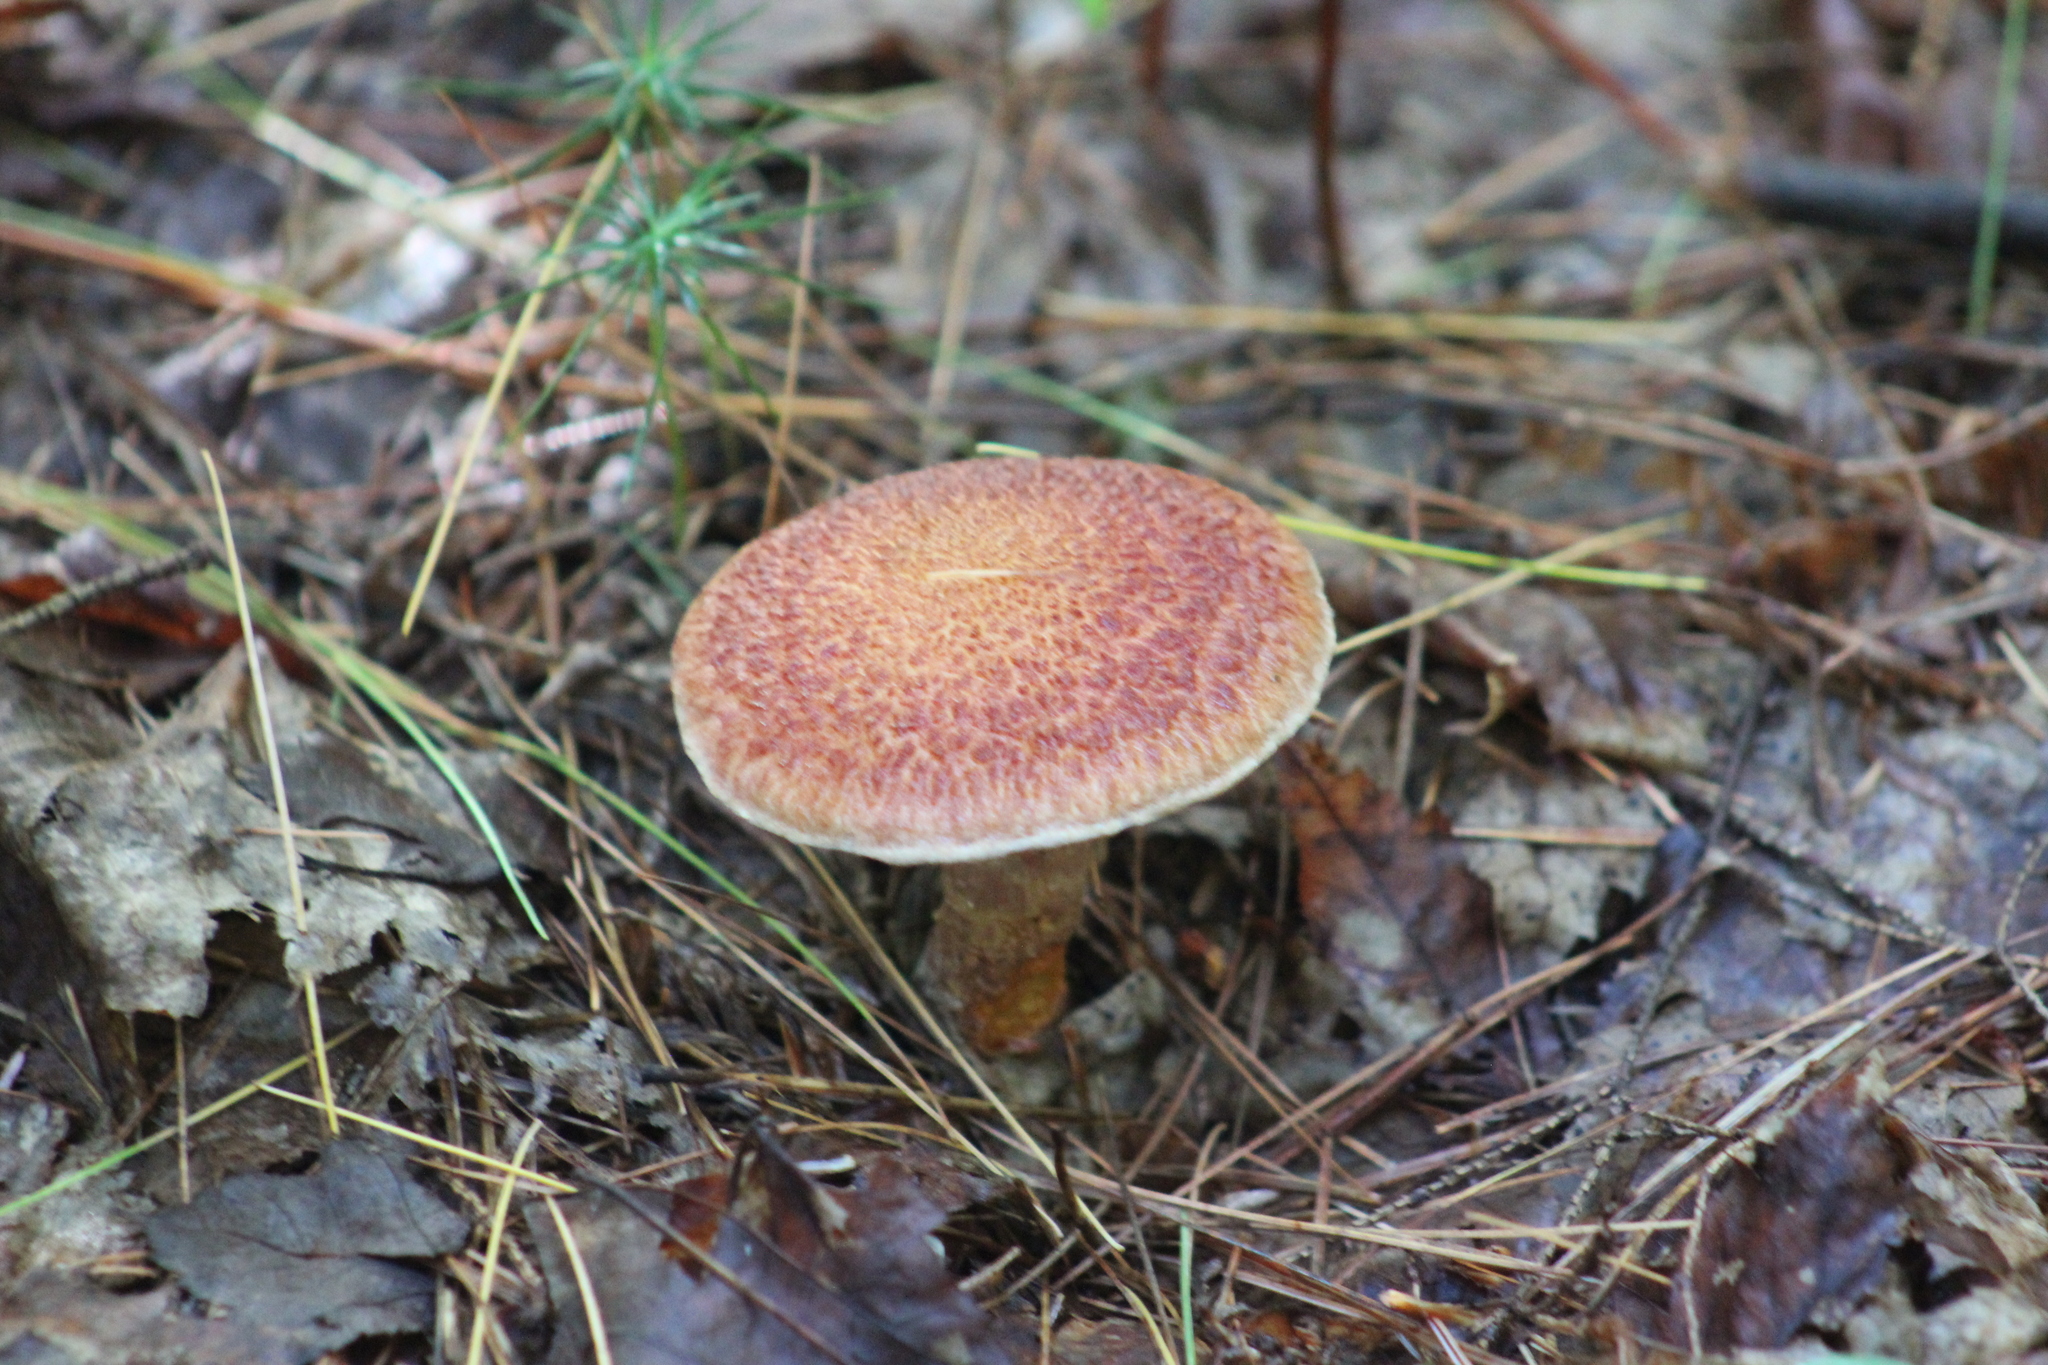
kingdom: Fungi
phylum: Basidiomycota
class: Agaricomycetes
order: Boletales
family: Suillaceae
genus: Suillus
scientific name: Suillus spraguei
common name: Painted suillus
